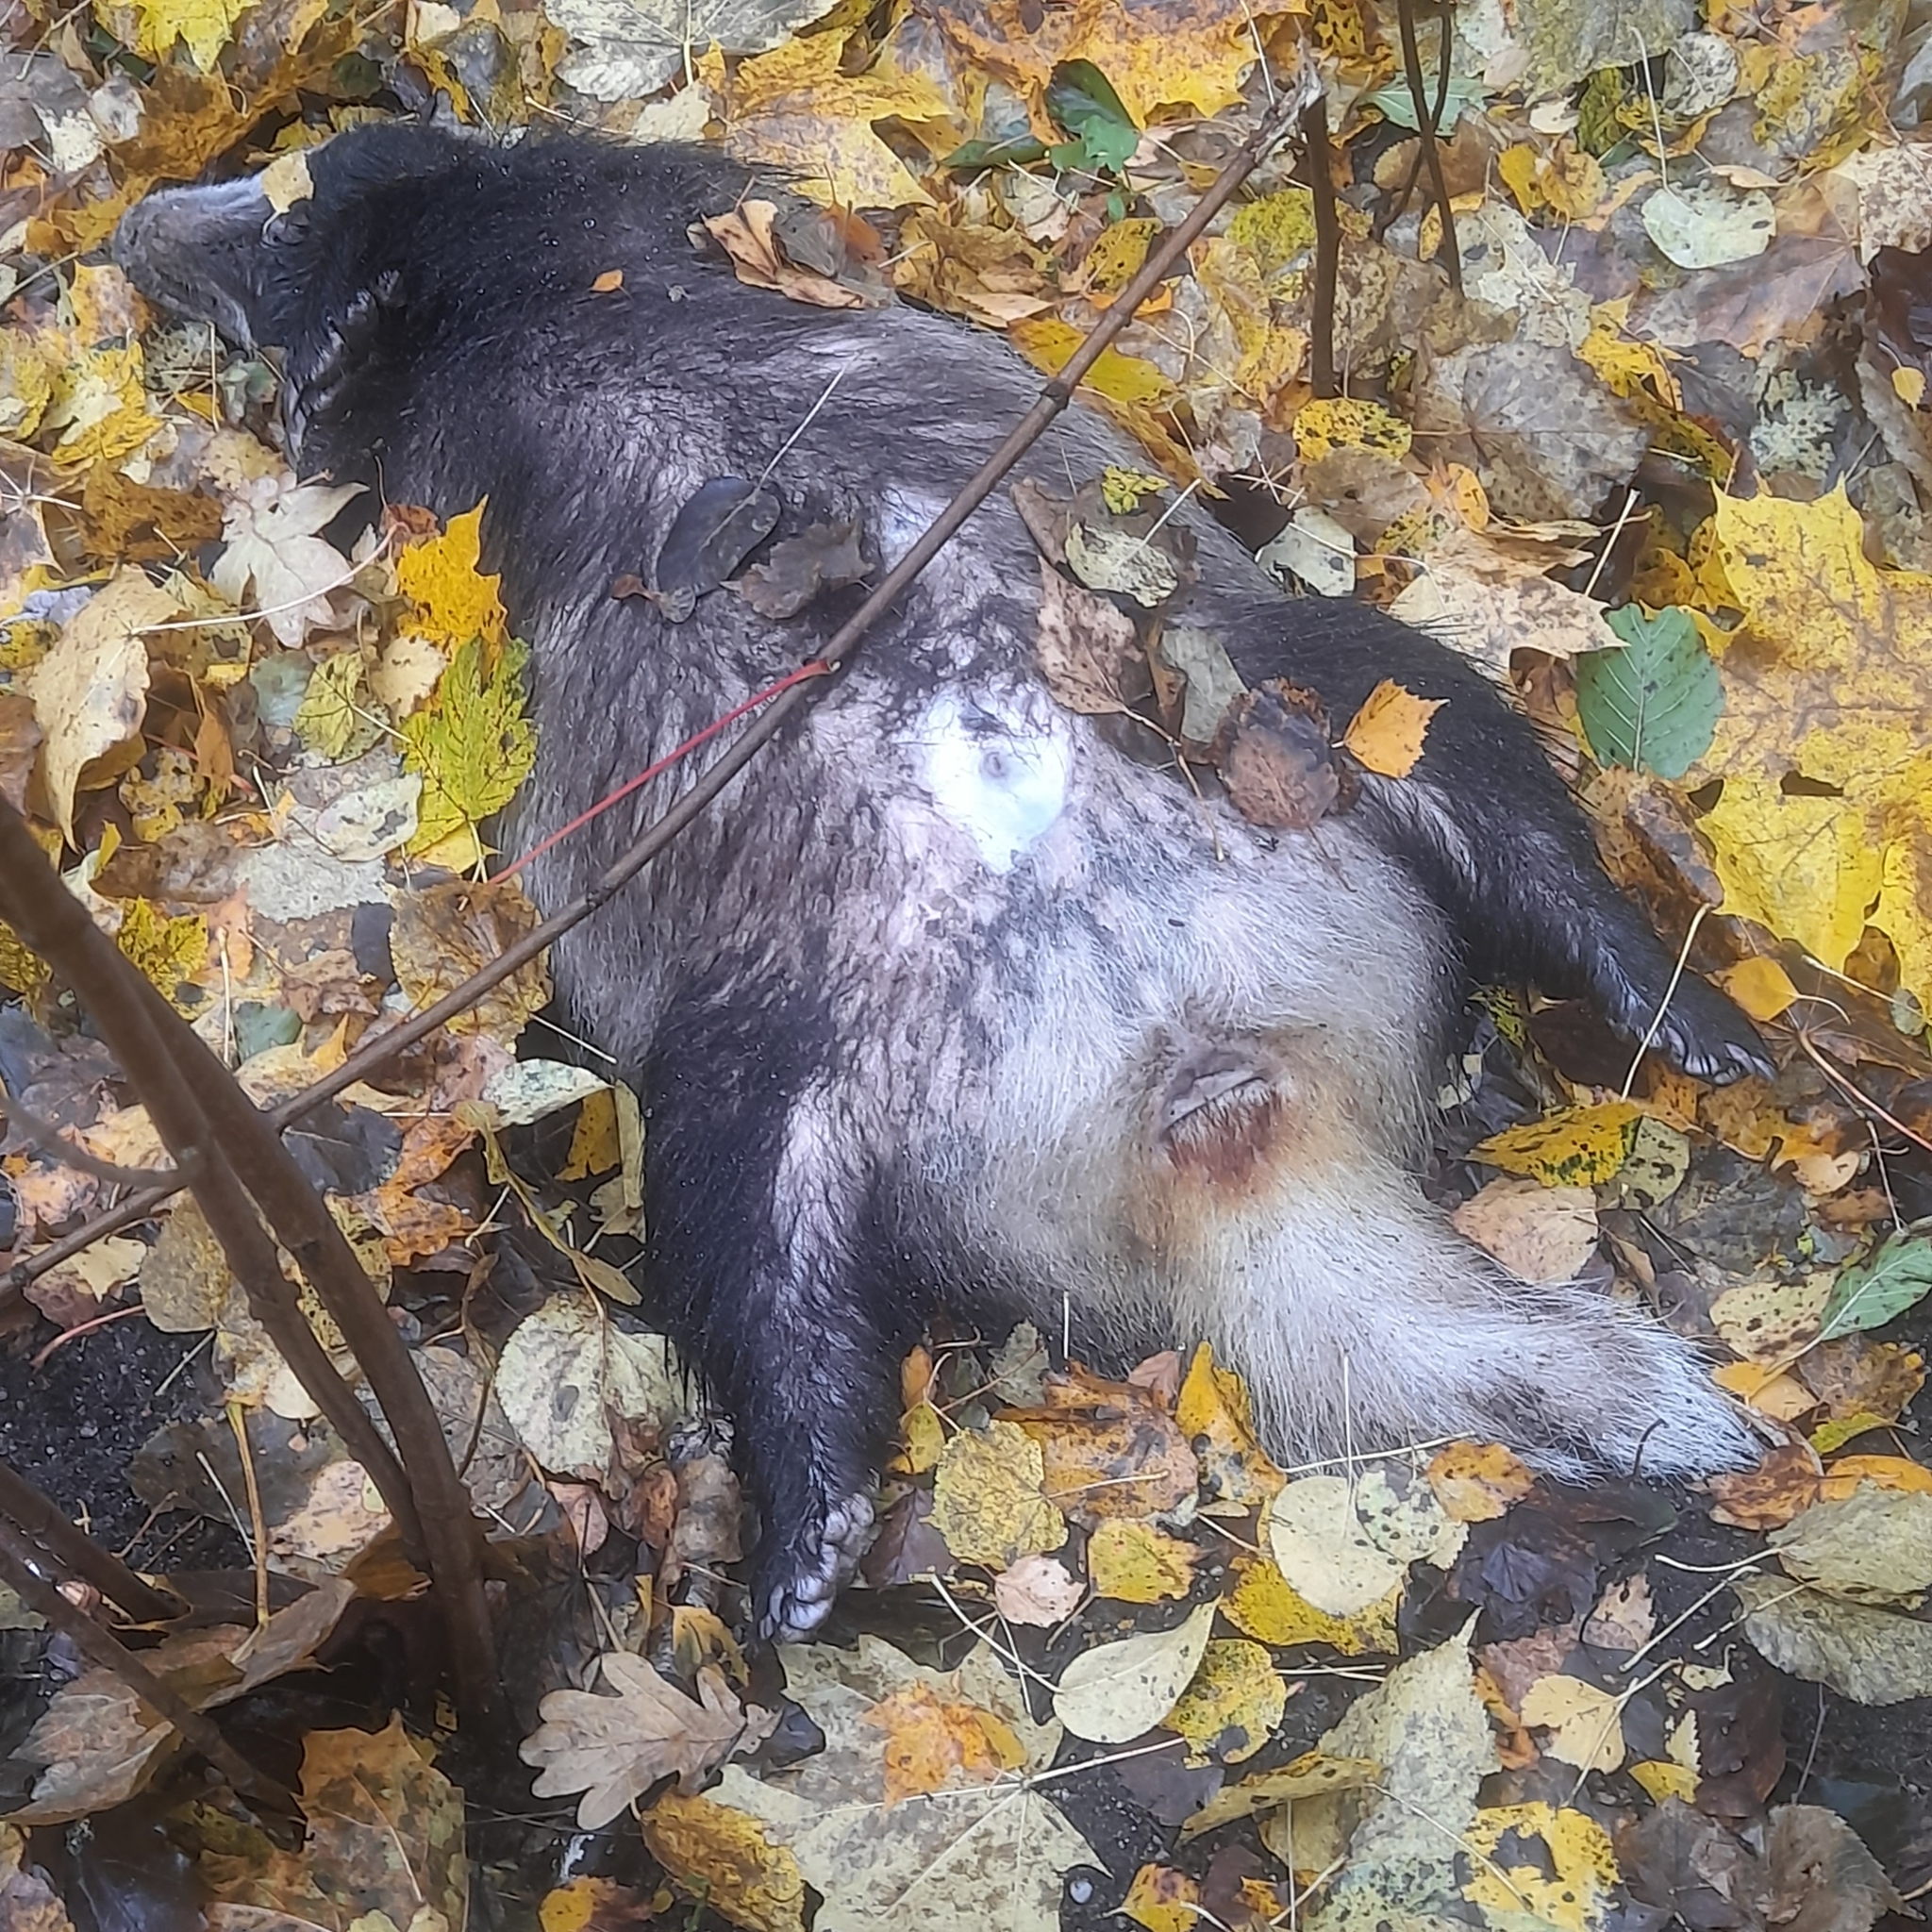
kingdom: Animalia
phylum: Chordata
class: Mammalia
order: Carnivora
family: Mustelidae
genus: Meles
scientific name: Meles meles
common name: Eurasian badger
